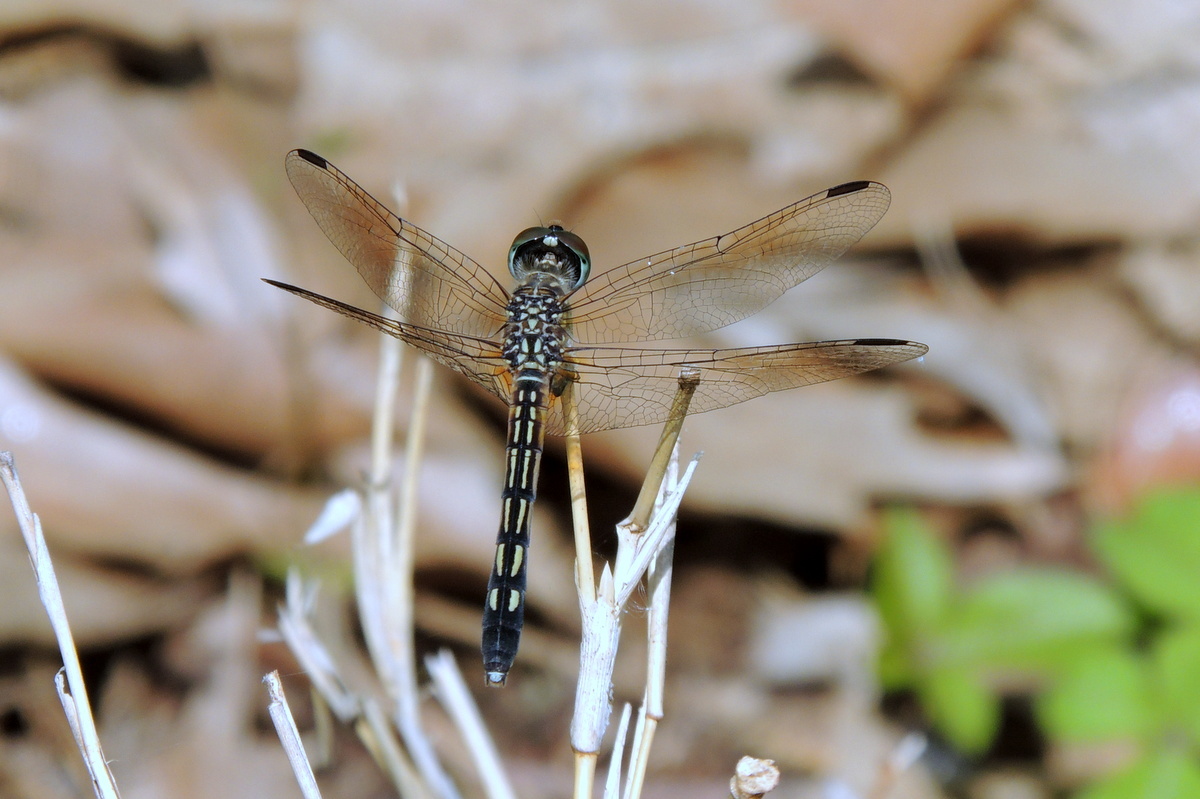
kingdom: Animalia
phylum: Arthropoda
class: Insecta
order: Odonata
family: Libellulidae
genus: Pachydiplax
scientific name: Pachydiplax longipennis
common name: Blue dasher
